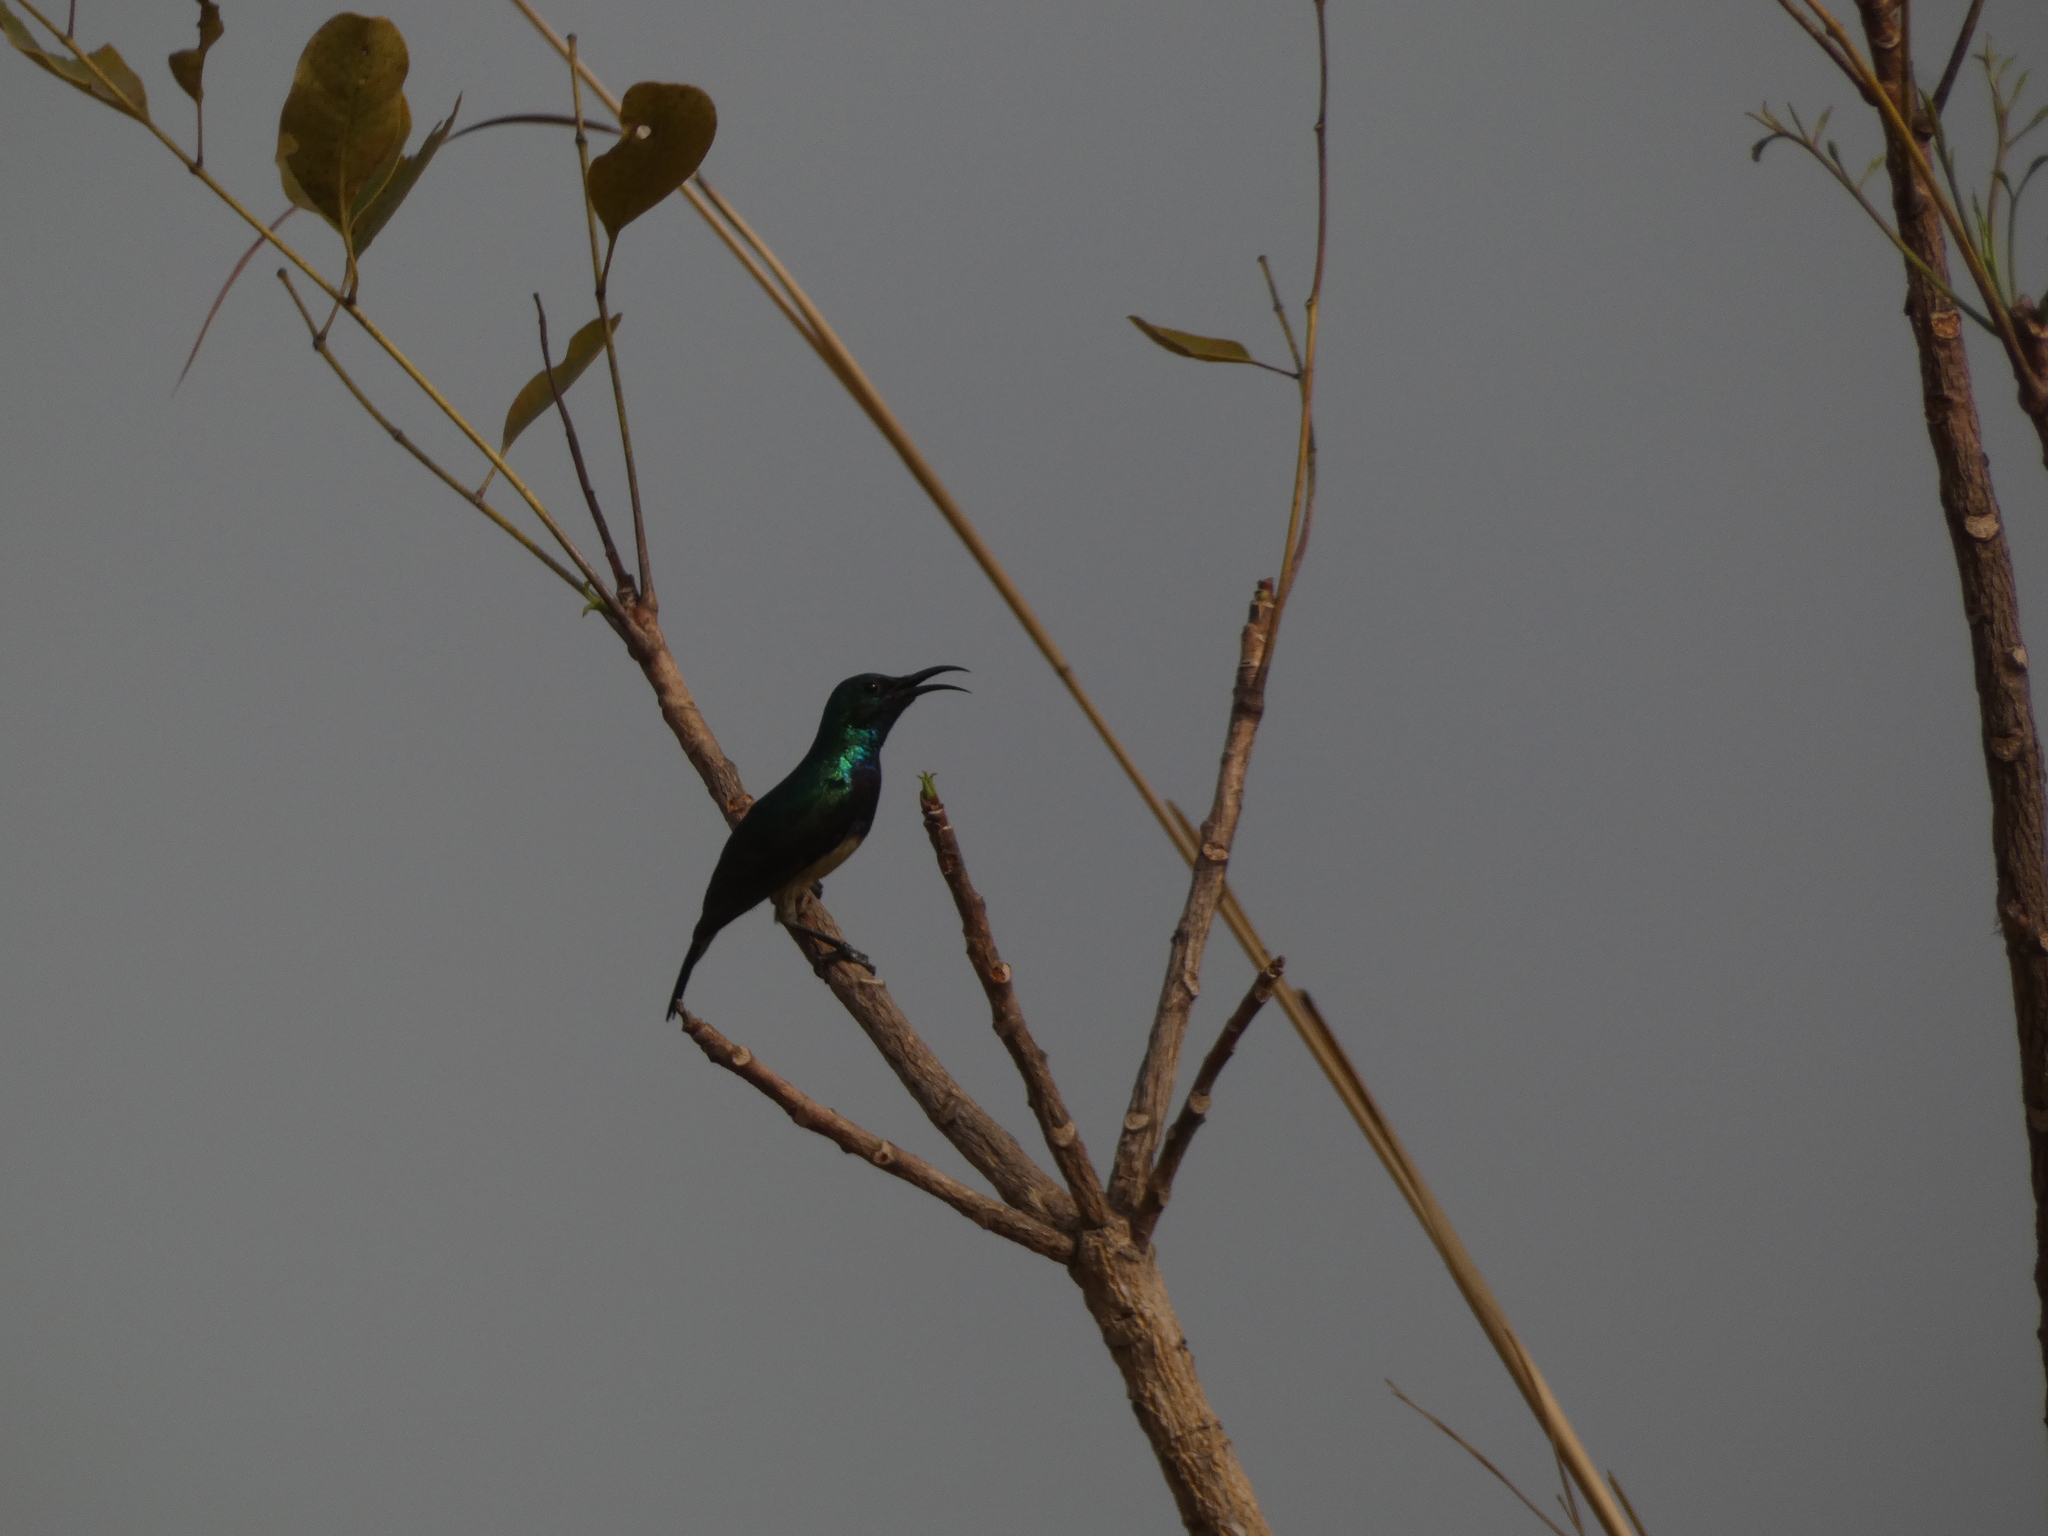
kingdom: Animalia
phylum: Chordata
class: Aves
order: Passeriformes
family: Nectariniidae
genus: Cinnyris
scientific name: Cinnyris venustus
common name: Variable sunbird
